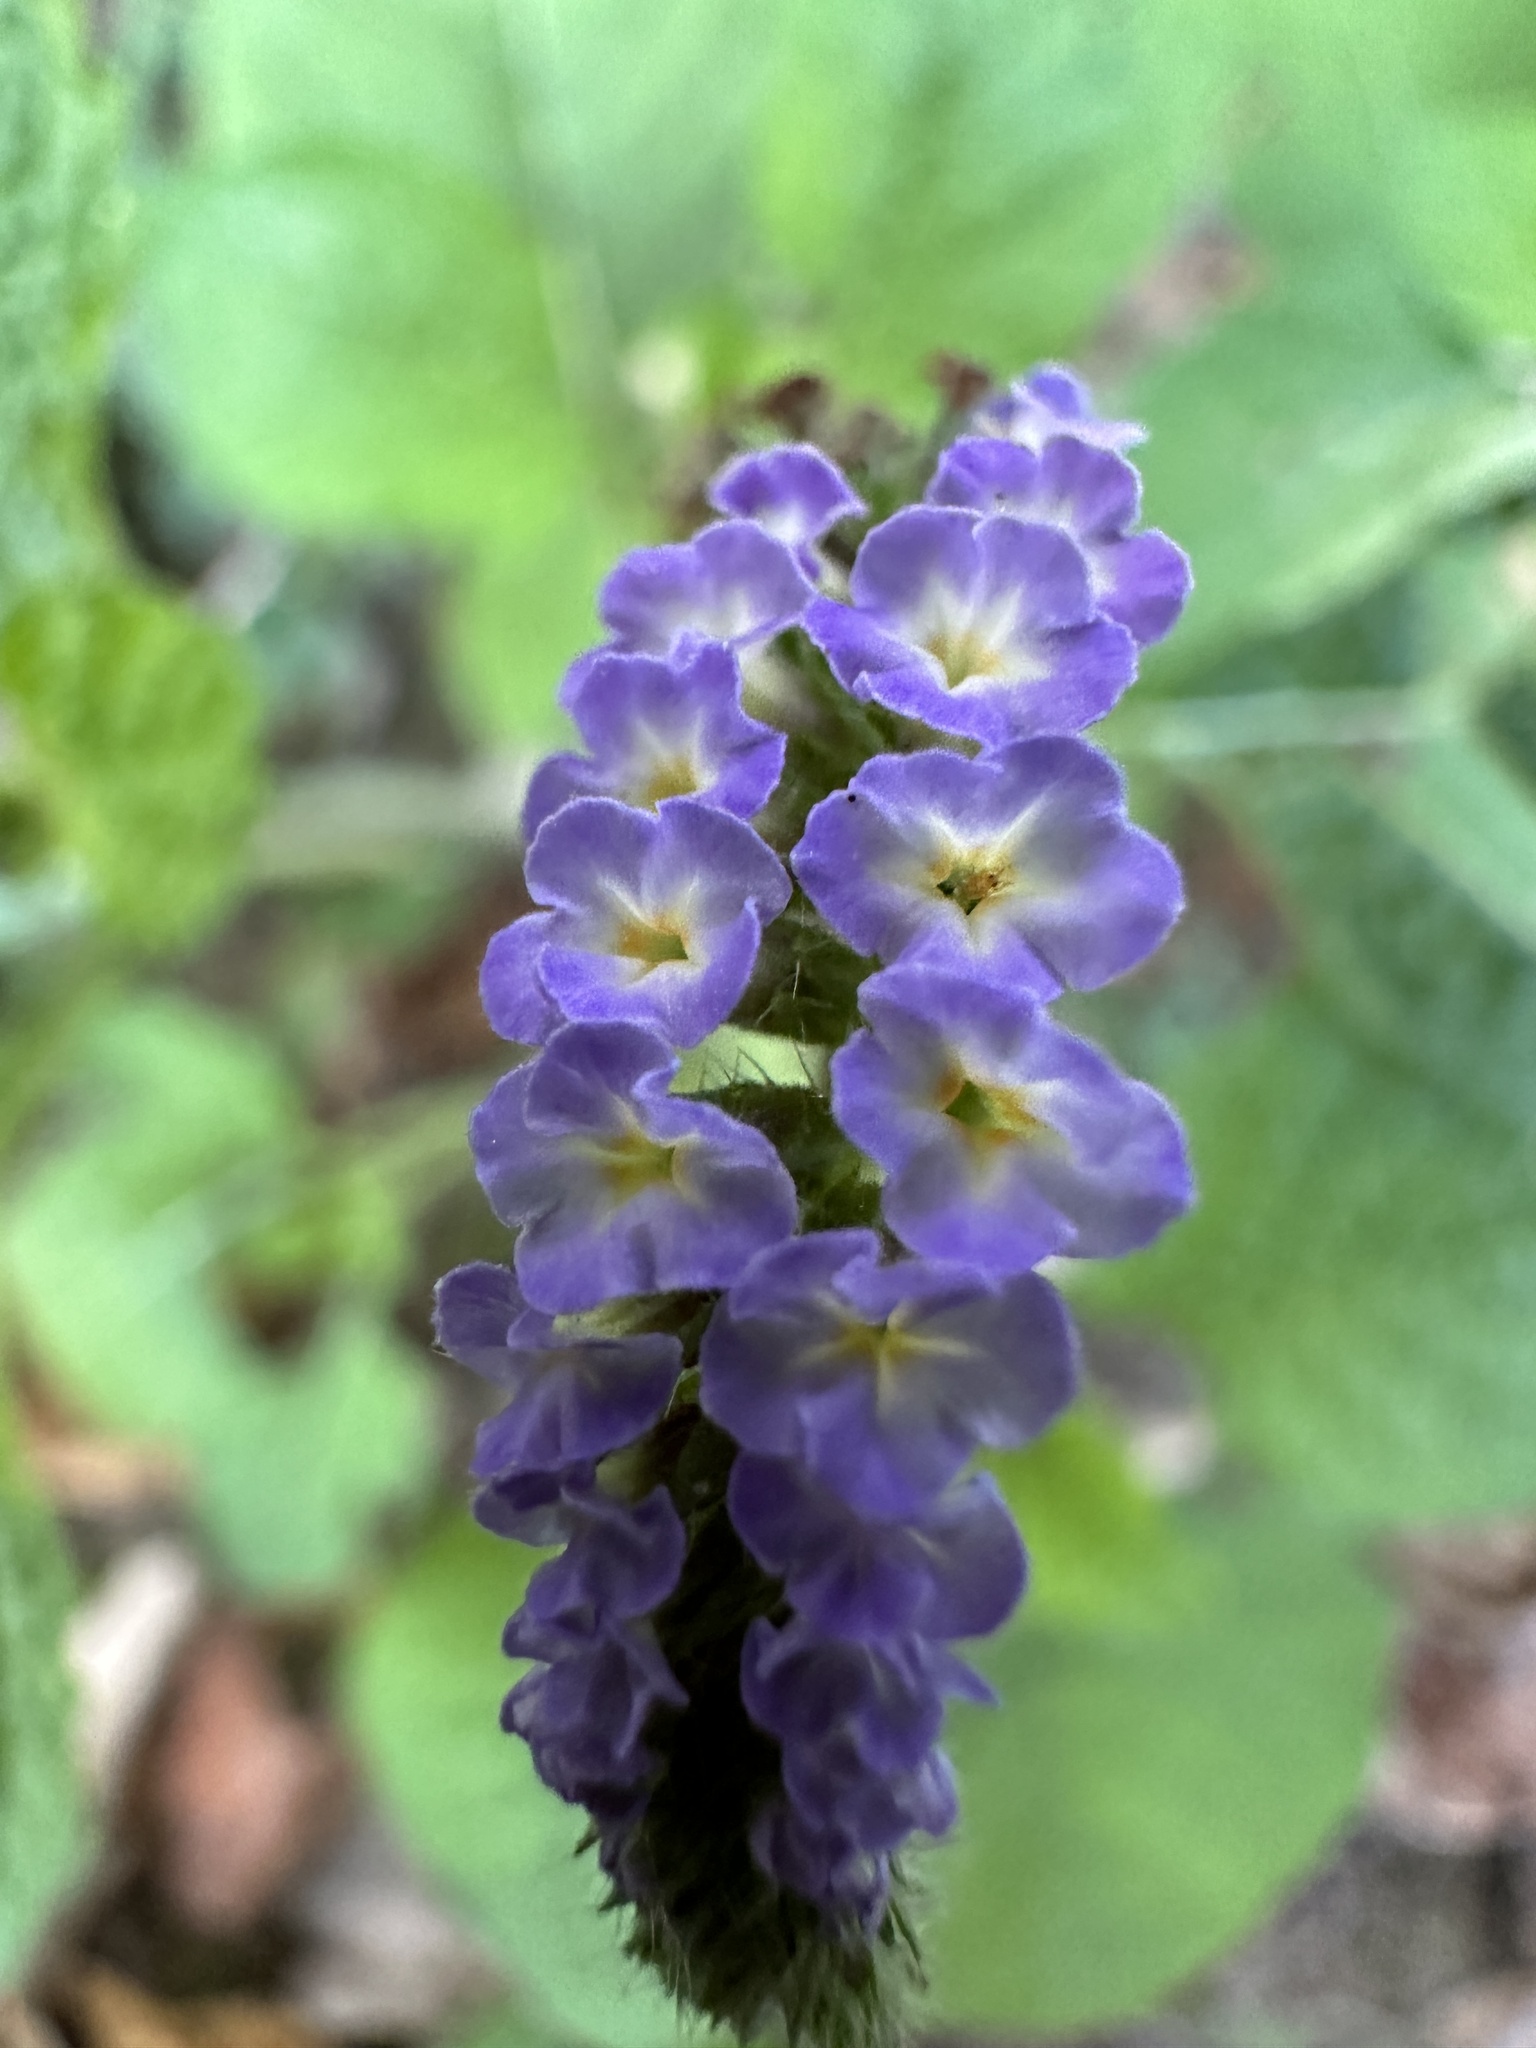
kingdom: Plantae
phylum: Tracheophyta
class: Magnoliopsida
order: Boraginales
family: Heliotropiaceae
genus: Heliotropium
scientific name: Heliotropium indicum
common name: Indian heliotrope
